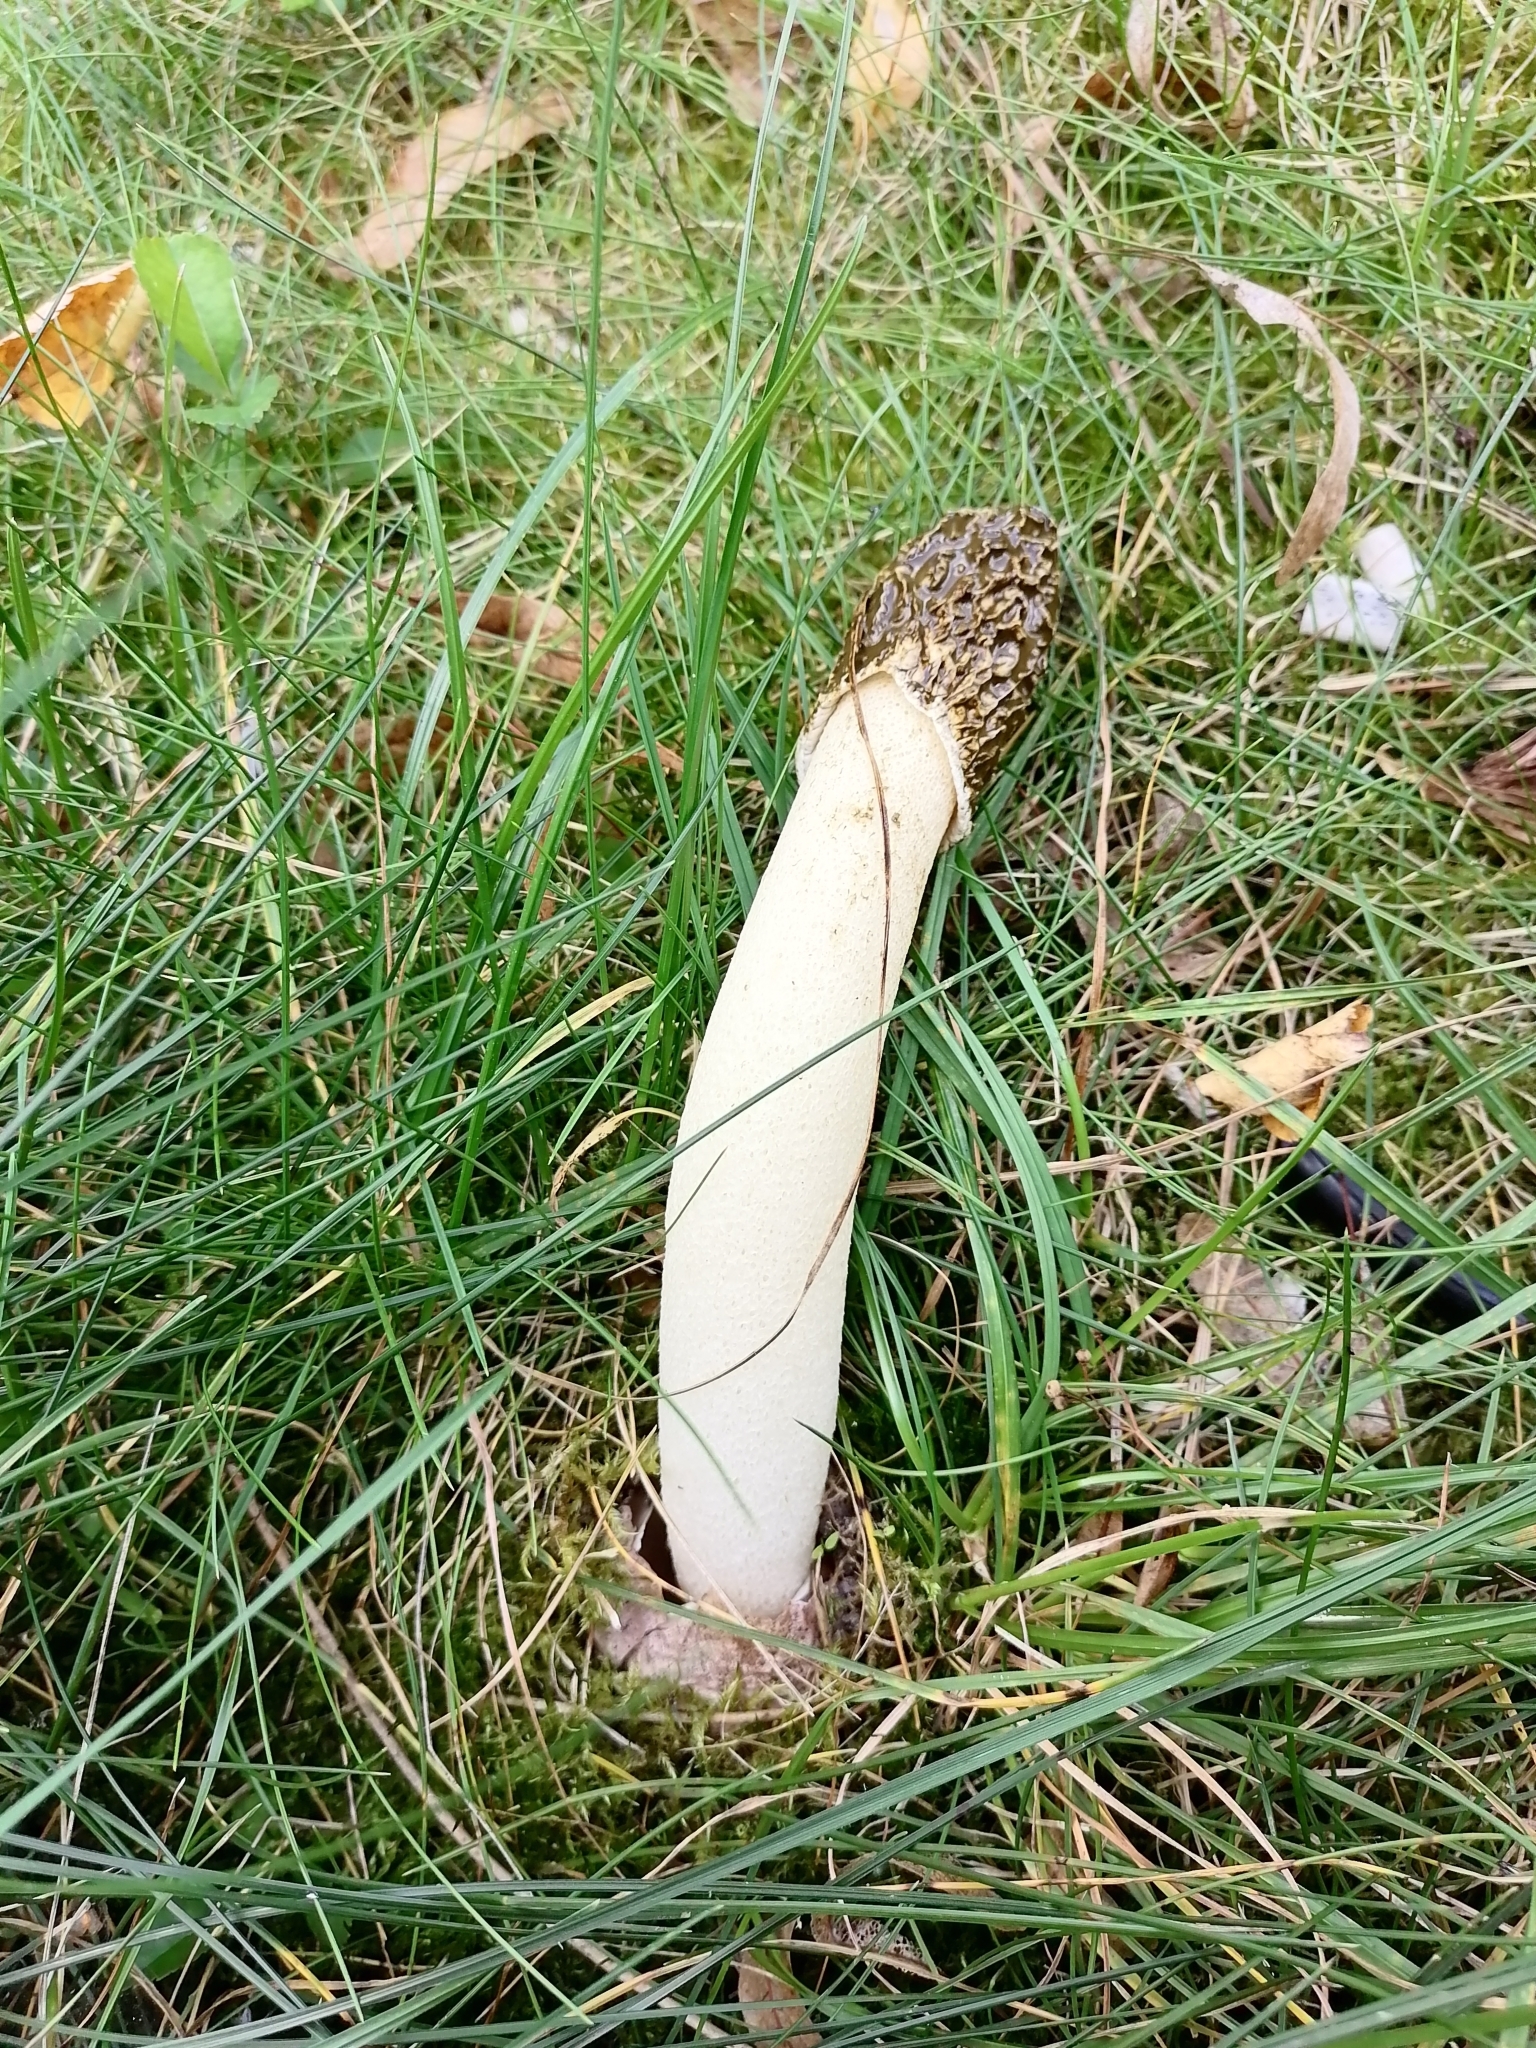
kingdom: Fungi
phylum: Basidiomycota
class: Agaricomycetes
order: Phallales
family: Phallaceae
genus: Phallus
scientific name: Phallus hadriani
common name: Sand stinkhorn
